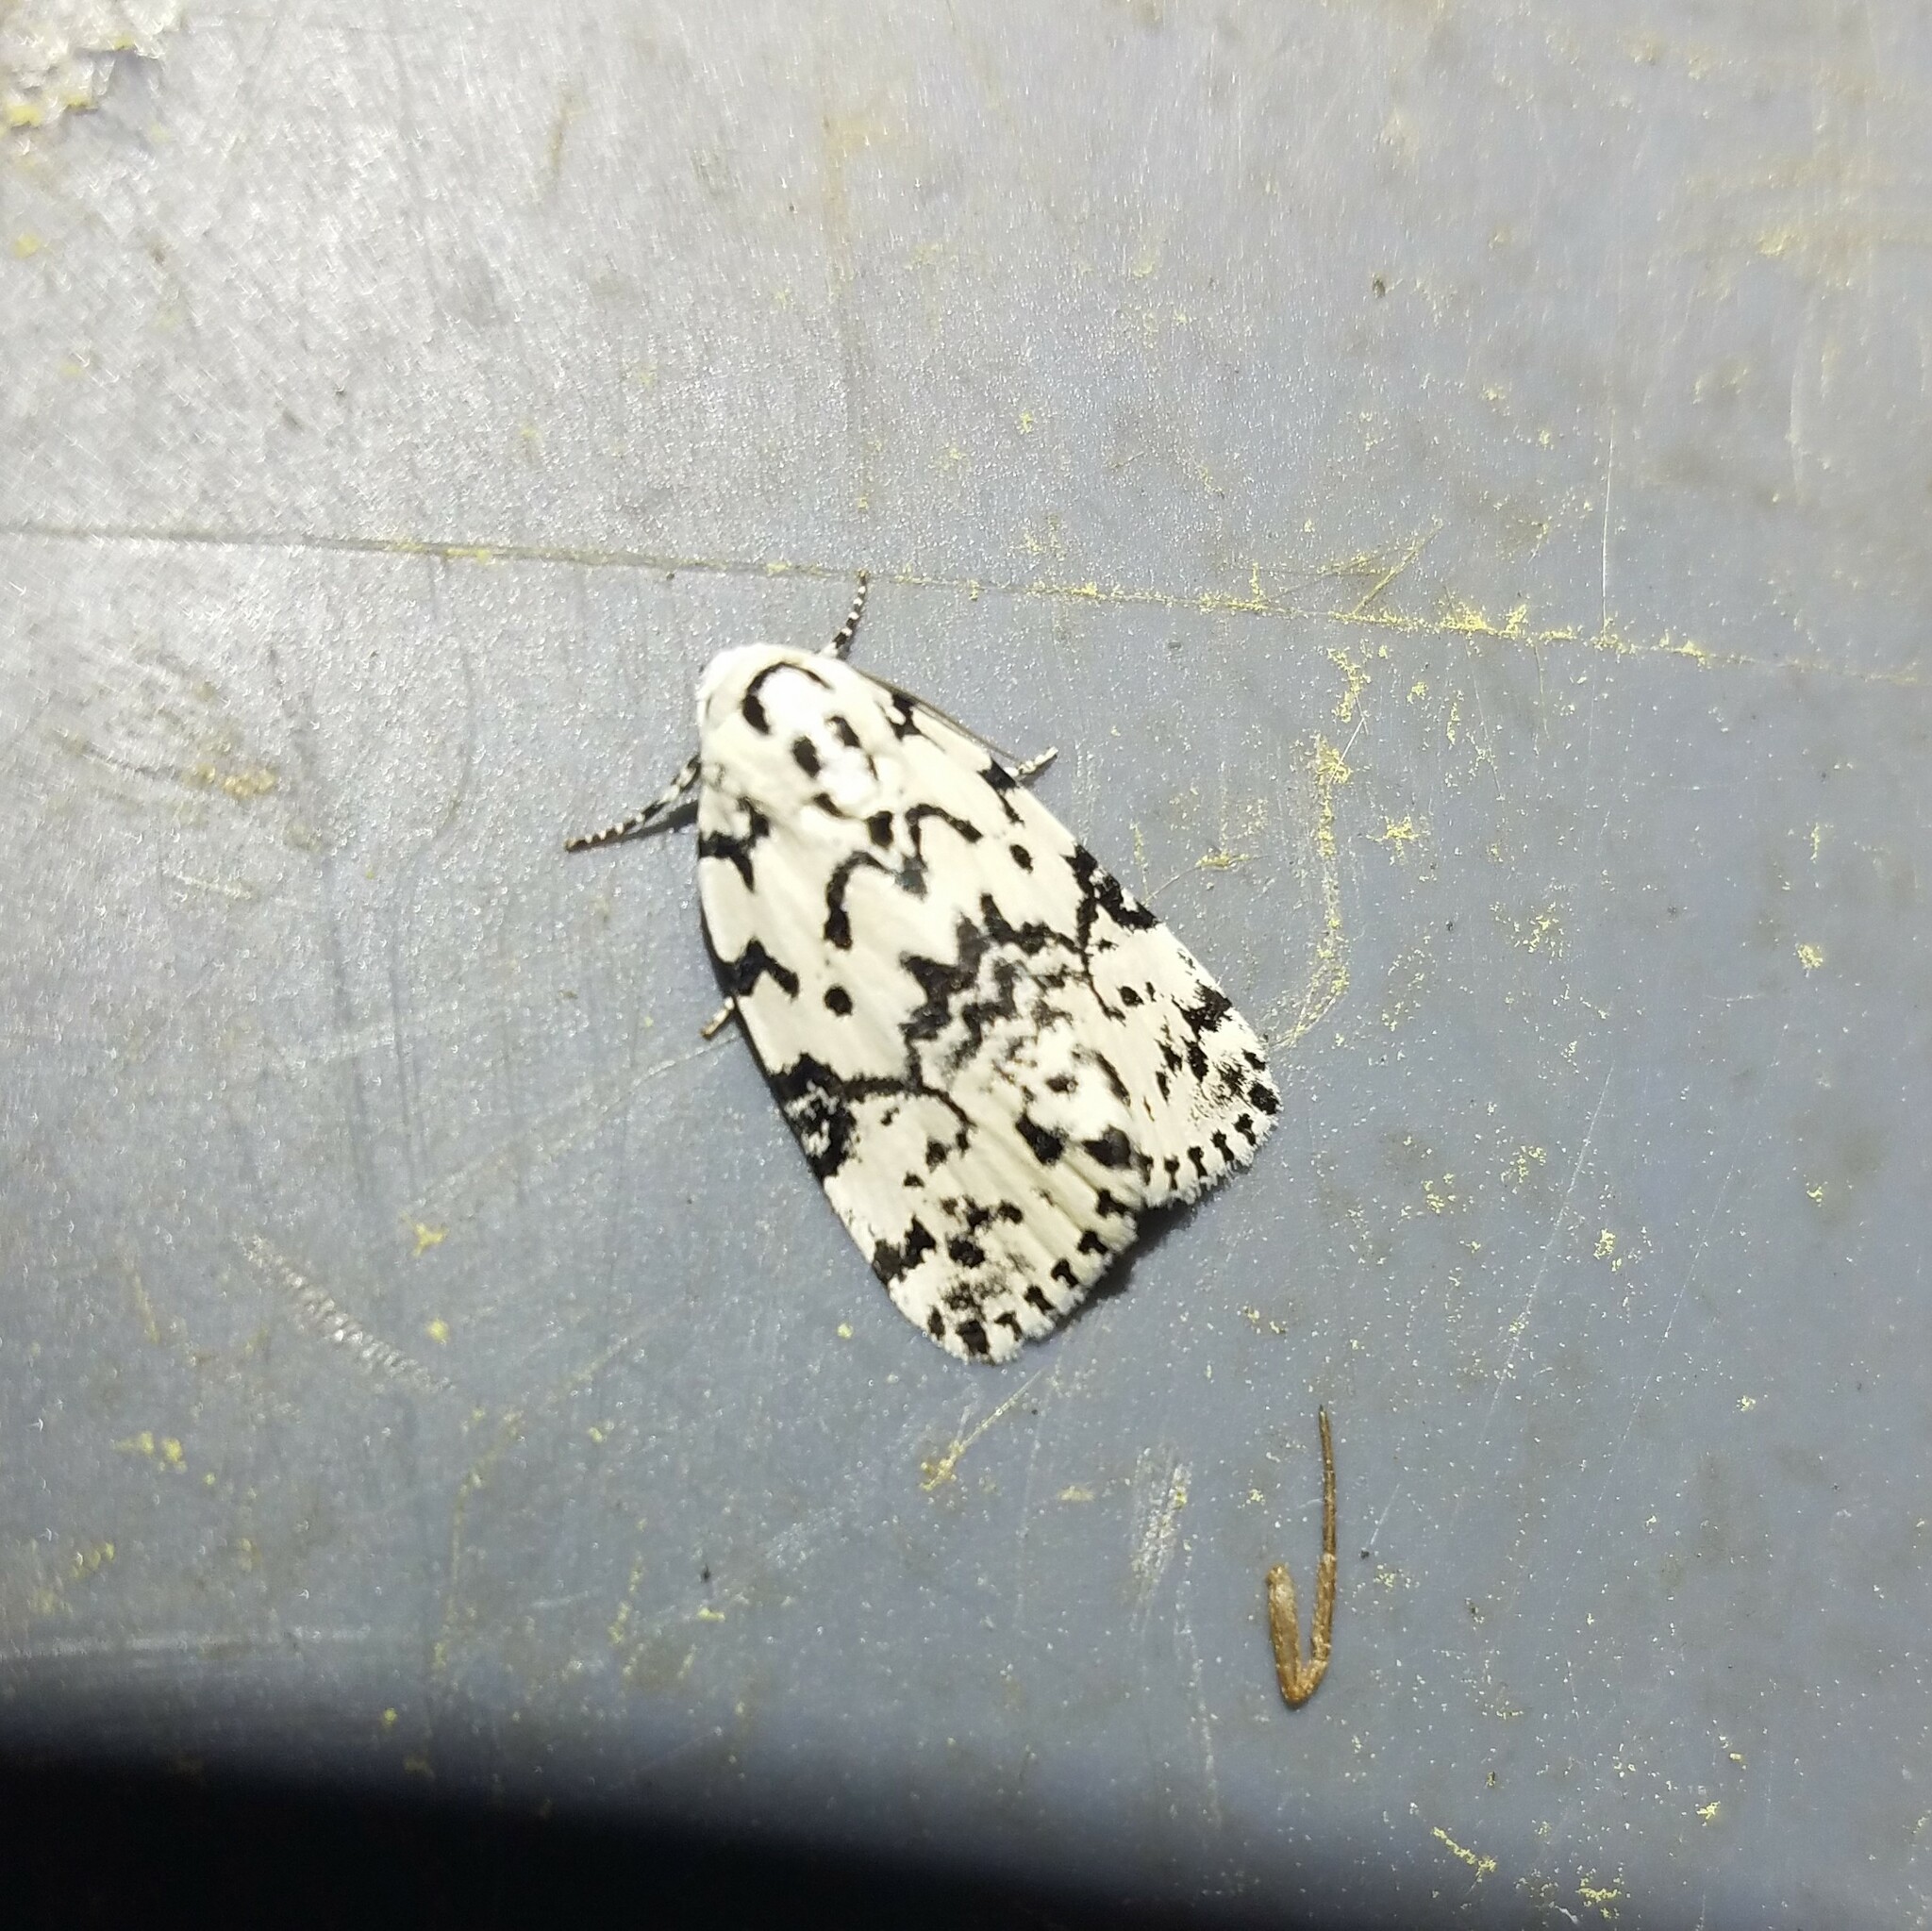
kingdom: Animalia
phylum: Arthropoda
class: Insecta
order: Lepidoptera
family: Noctuidae
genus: Polygrammate
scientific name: Polygrammate hebraeicum
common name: Hebrew moth
